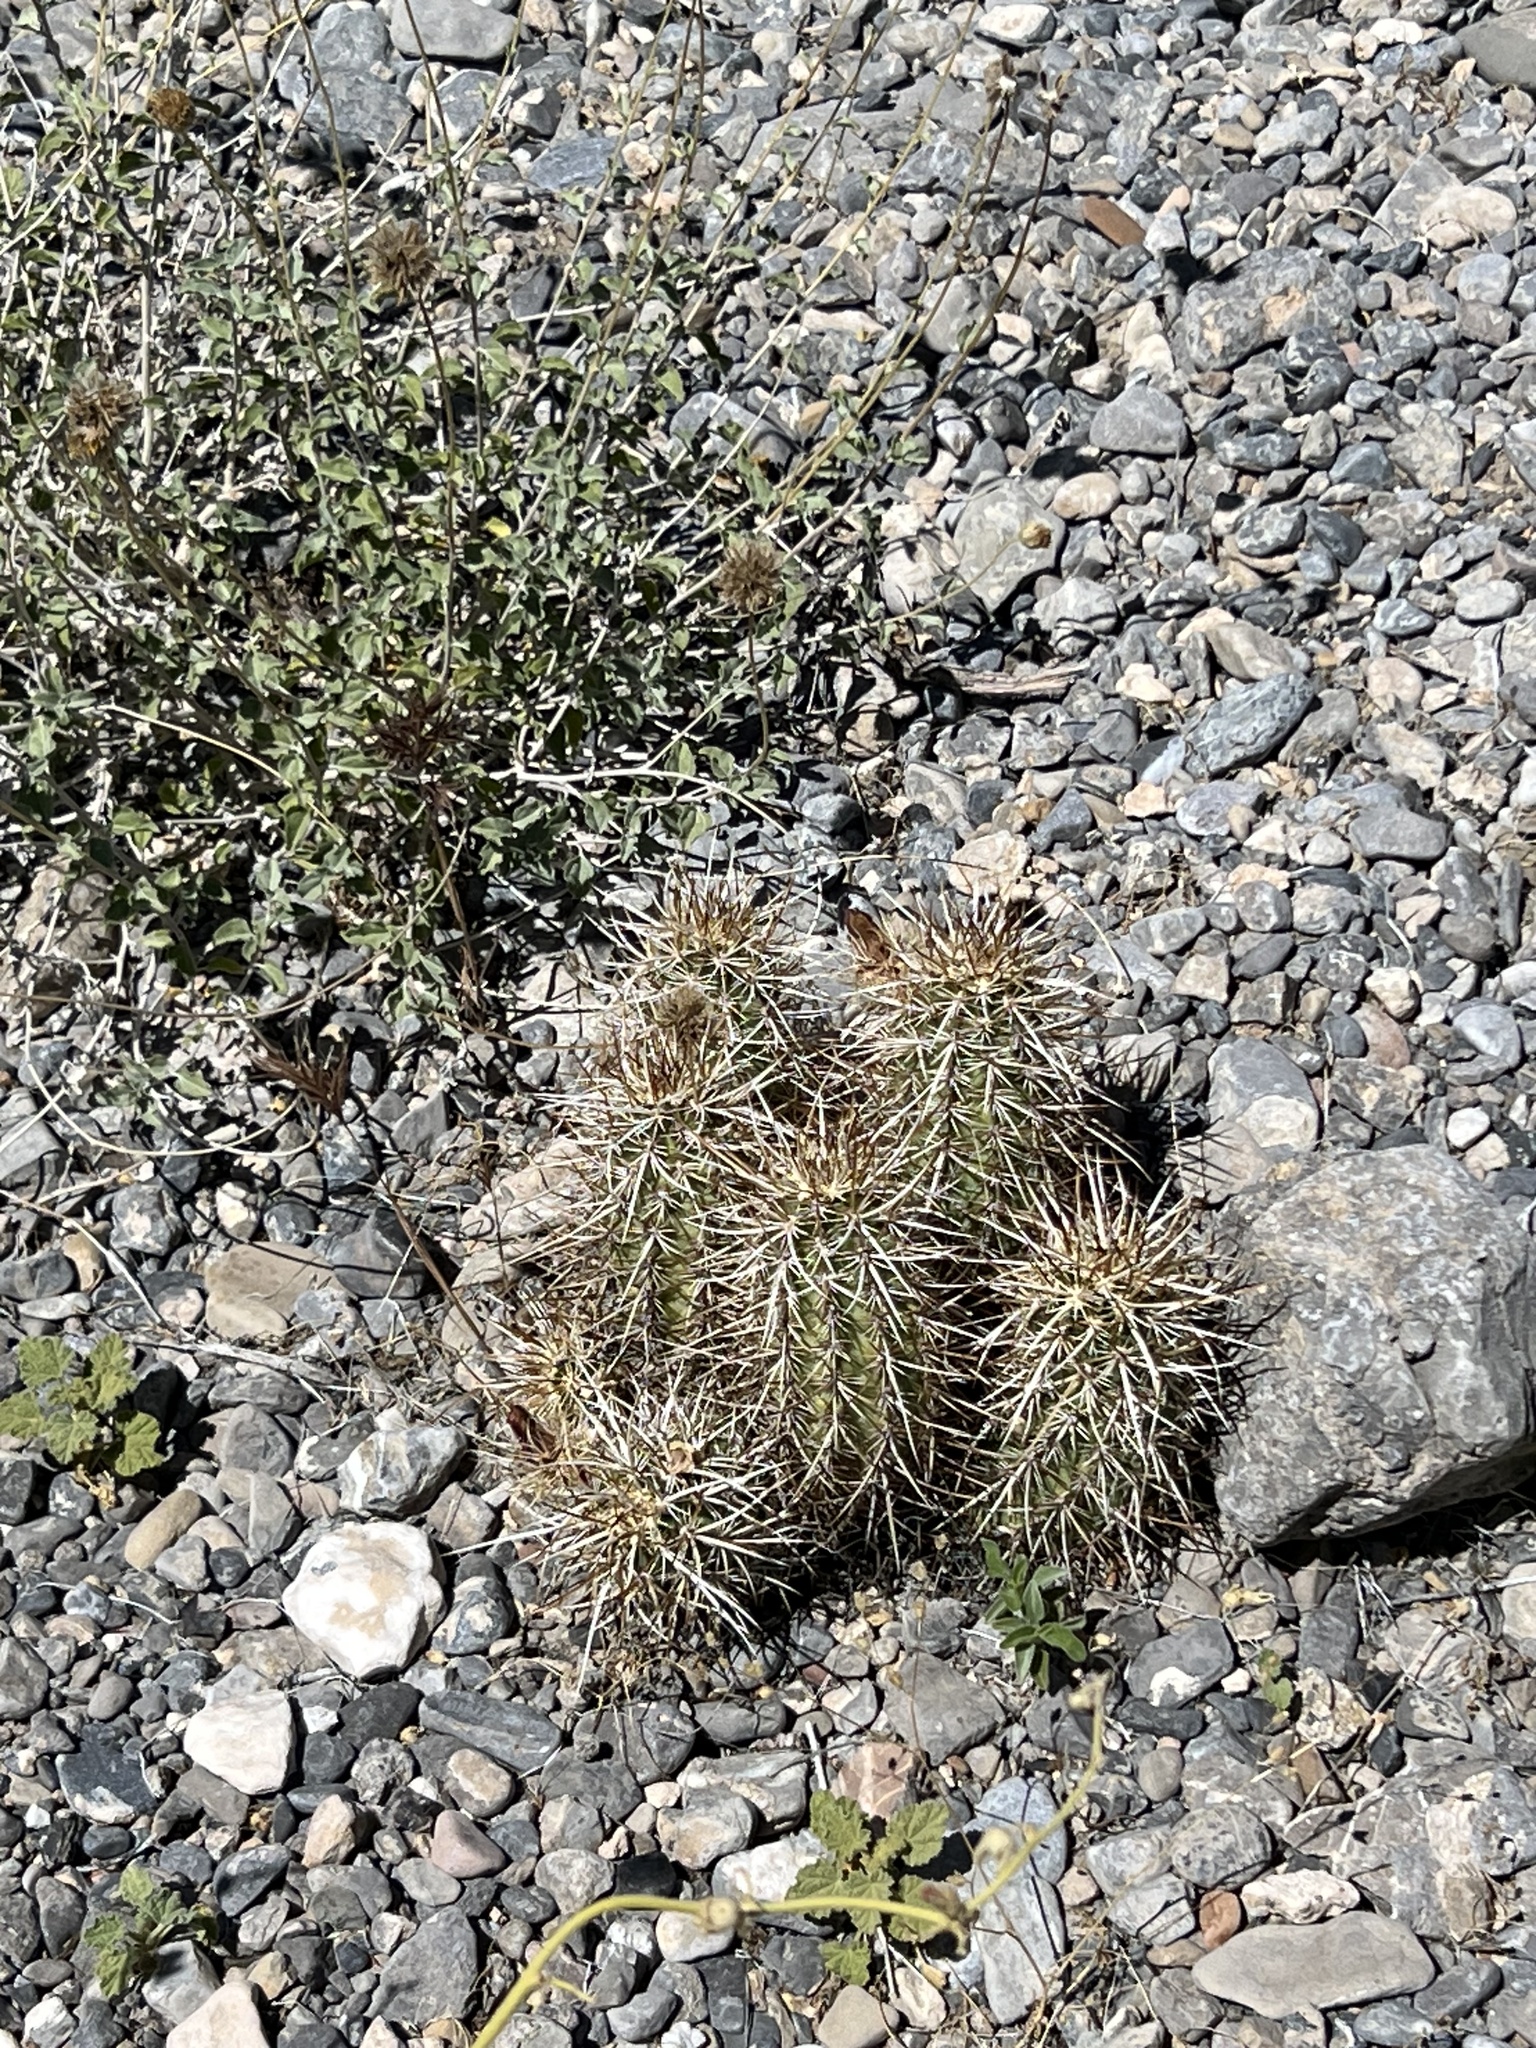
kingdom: Plantae
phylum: Tracheophyta
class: Magnoliopsida
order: Caryophyllales
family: Cactaceae
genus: Echinocereus
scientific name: Echinocereus engelmannii
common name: Engelmann's hedgehog cactus
